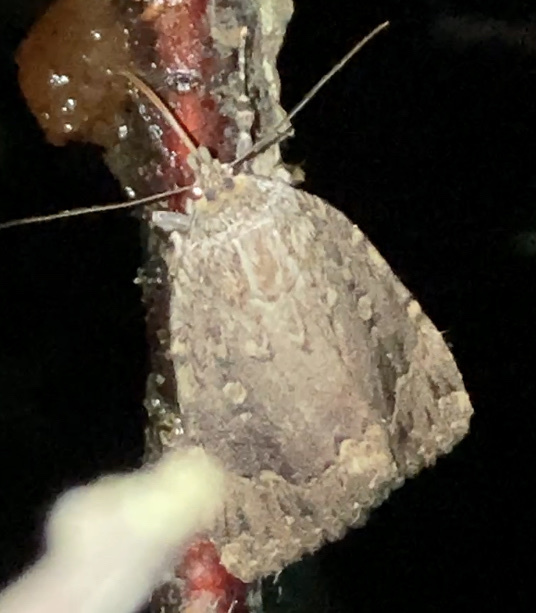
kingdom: Animalia
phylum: Arthropoda
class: Insecta
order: Lepidoptera
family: Noctuidae
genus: Amphipyra
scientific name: Amphipyra pyramidoides
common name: American copper underwing
